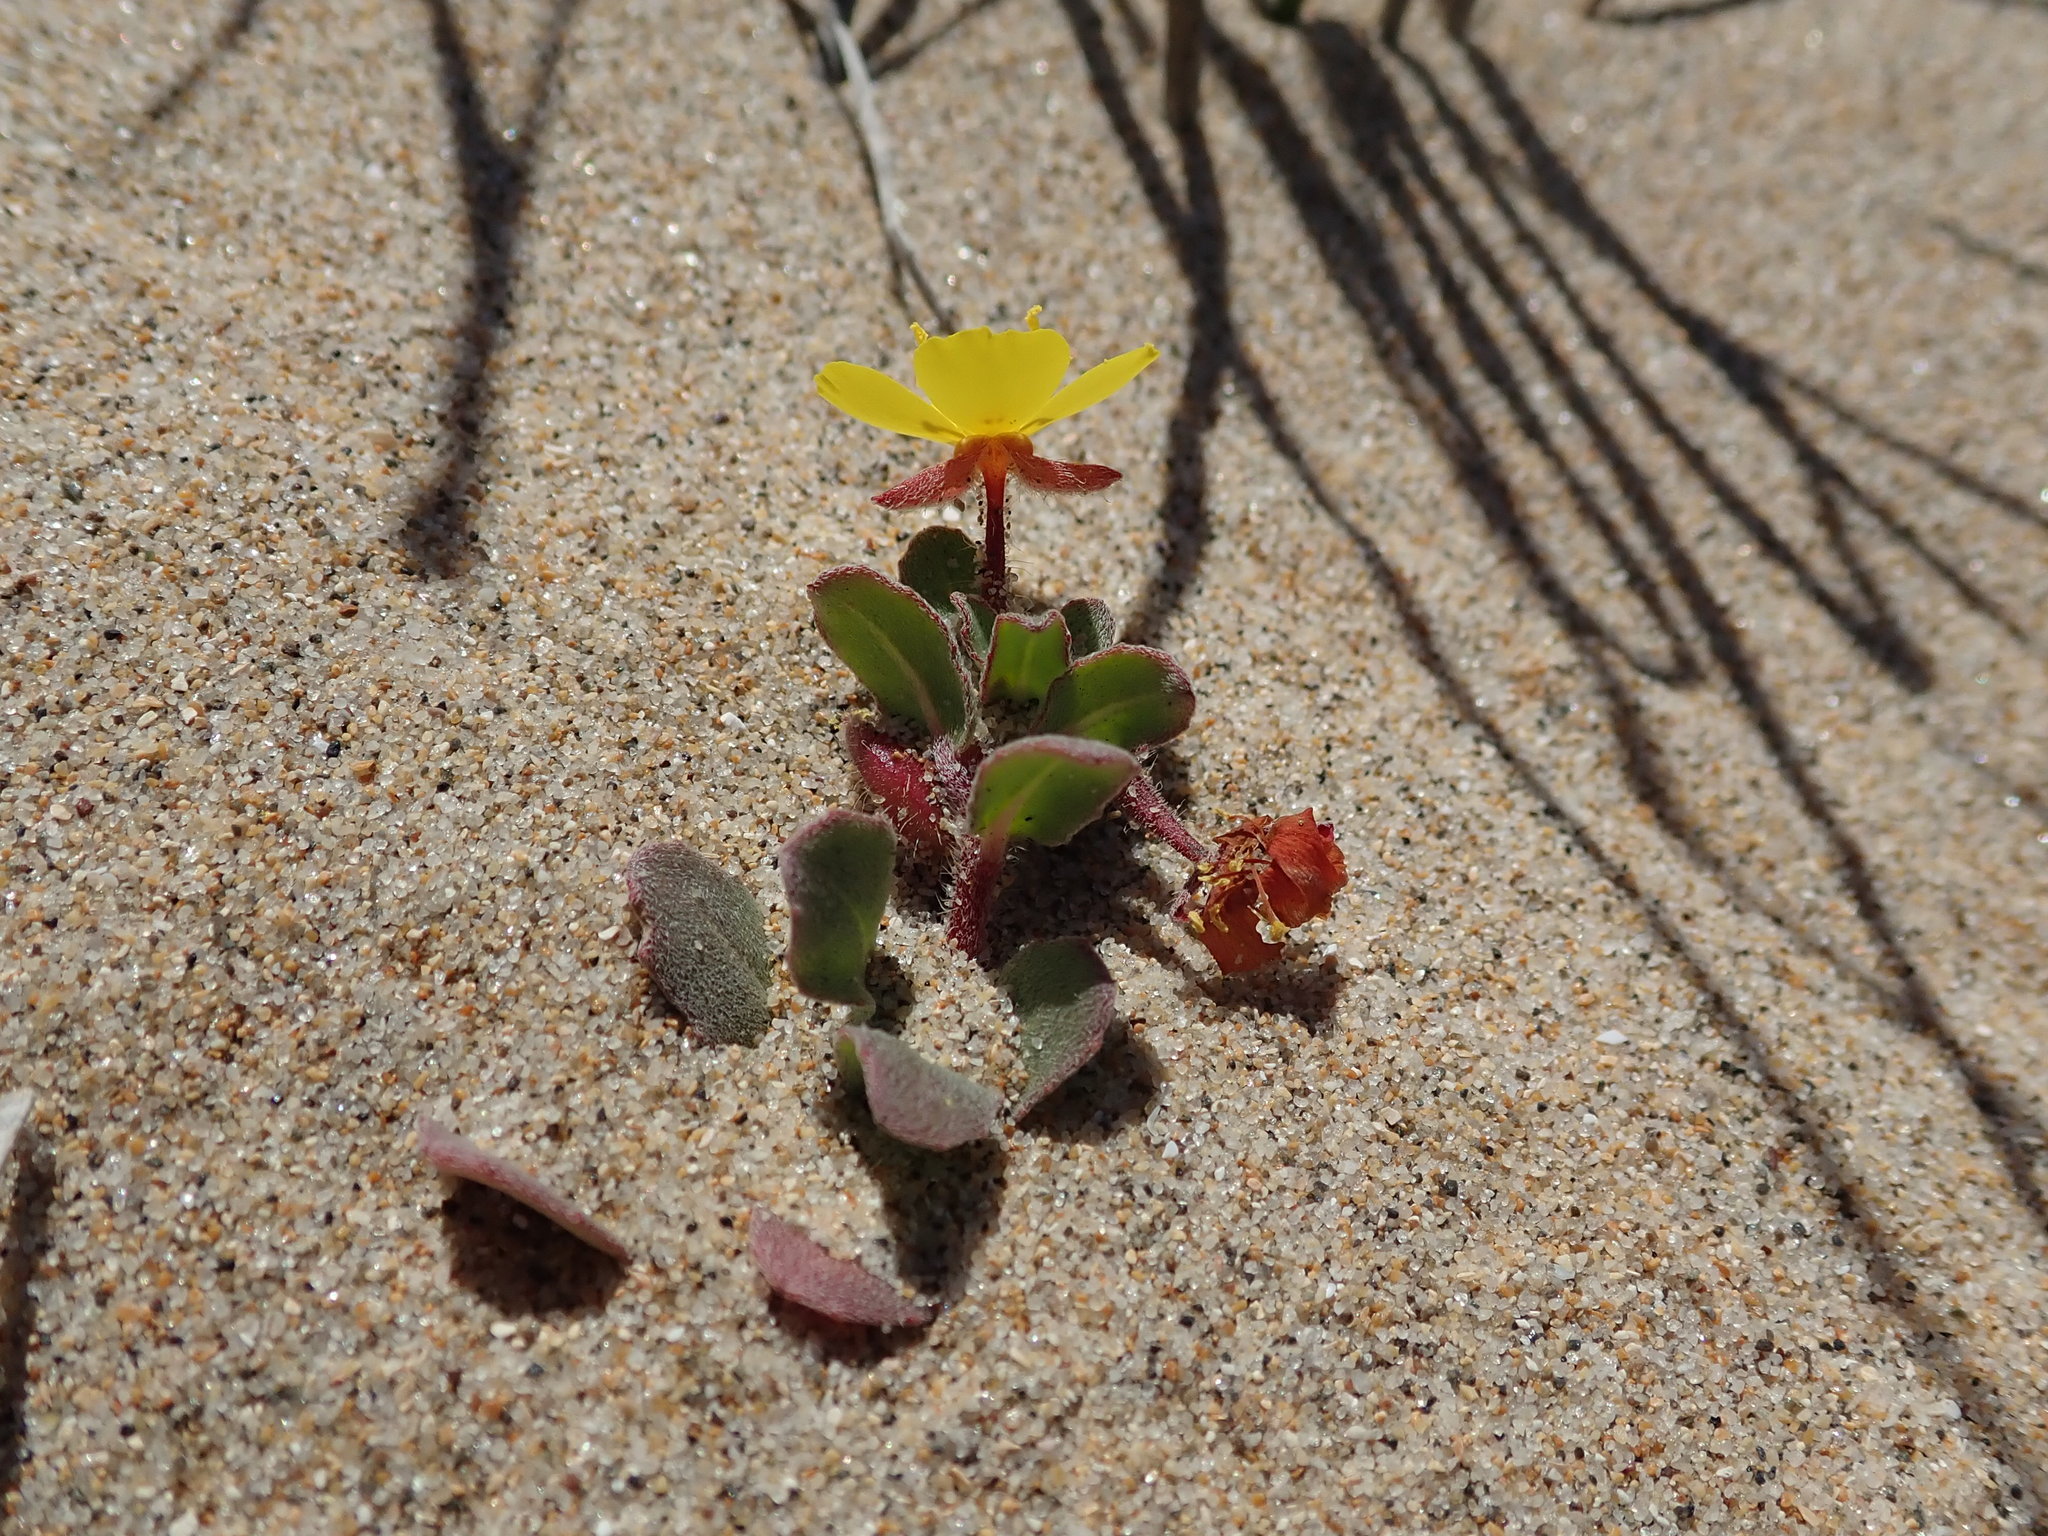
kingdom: Plantae
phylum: Tracheophyta
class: Magnoliopsida
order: Myrtales
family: Onagraceae
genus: Camissoniopsis
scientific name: Camissoniopsis cheiranthifolia
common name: Beach suncup
